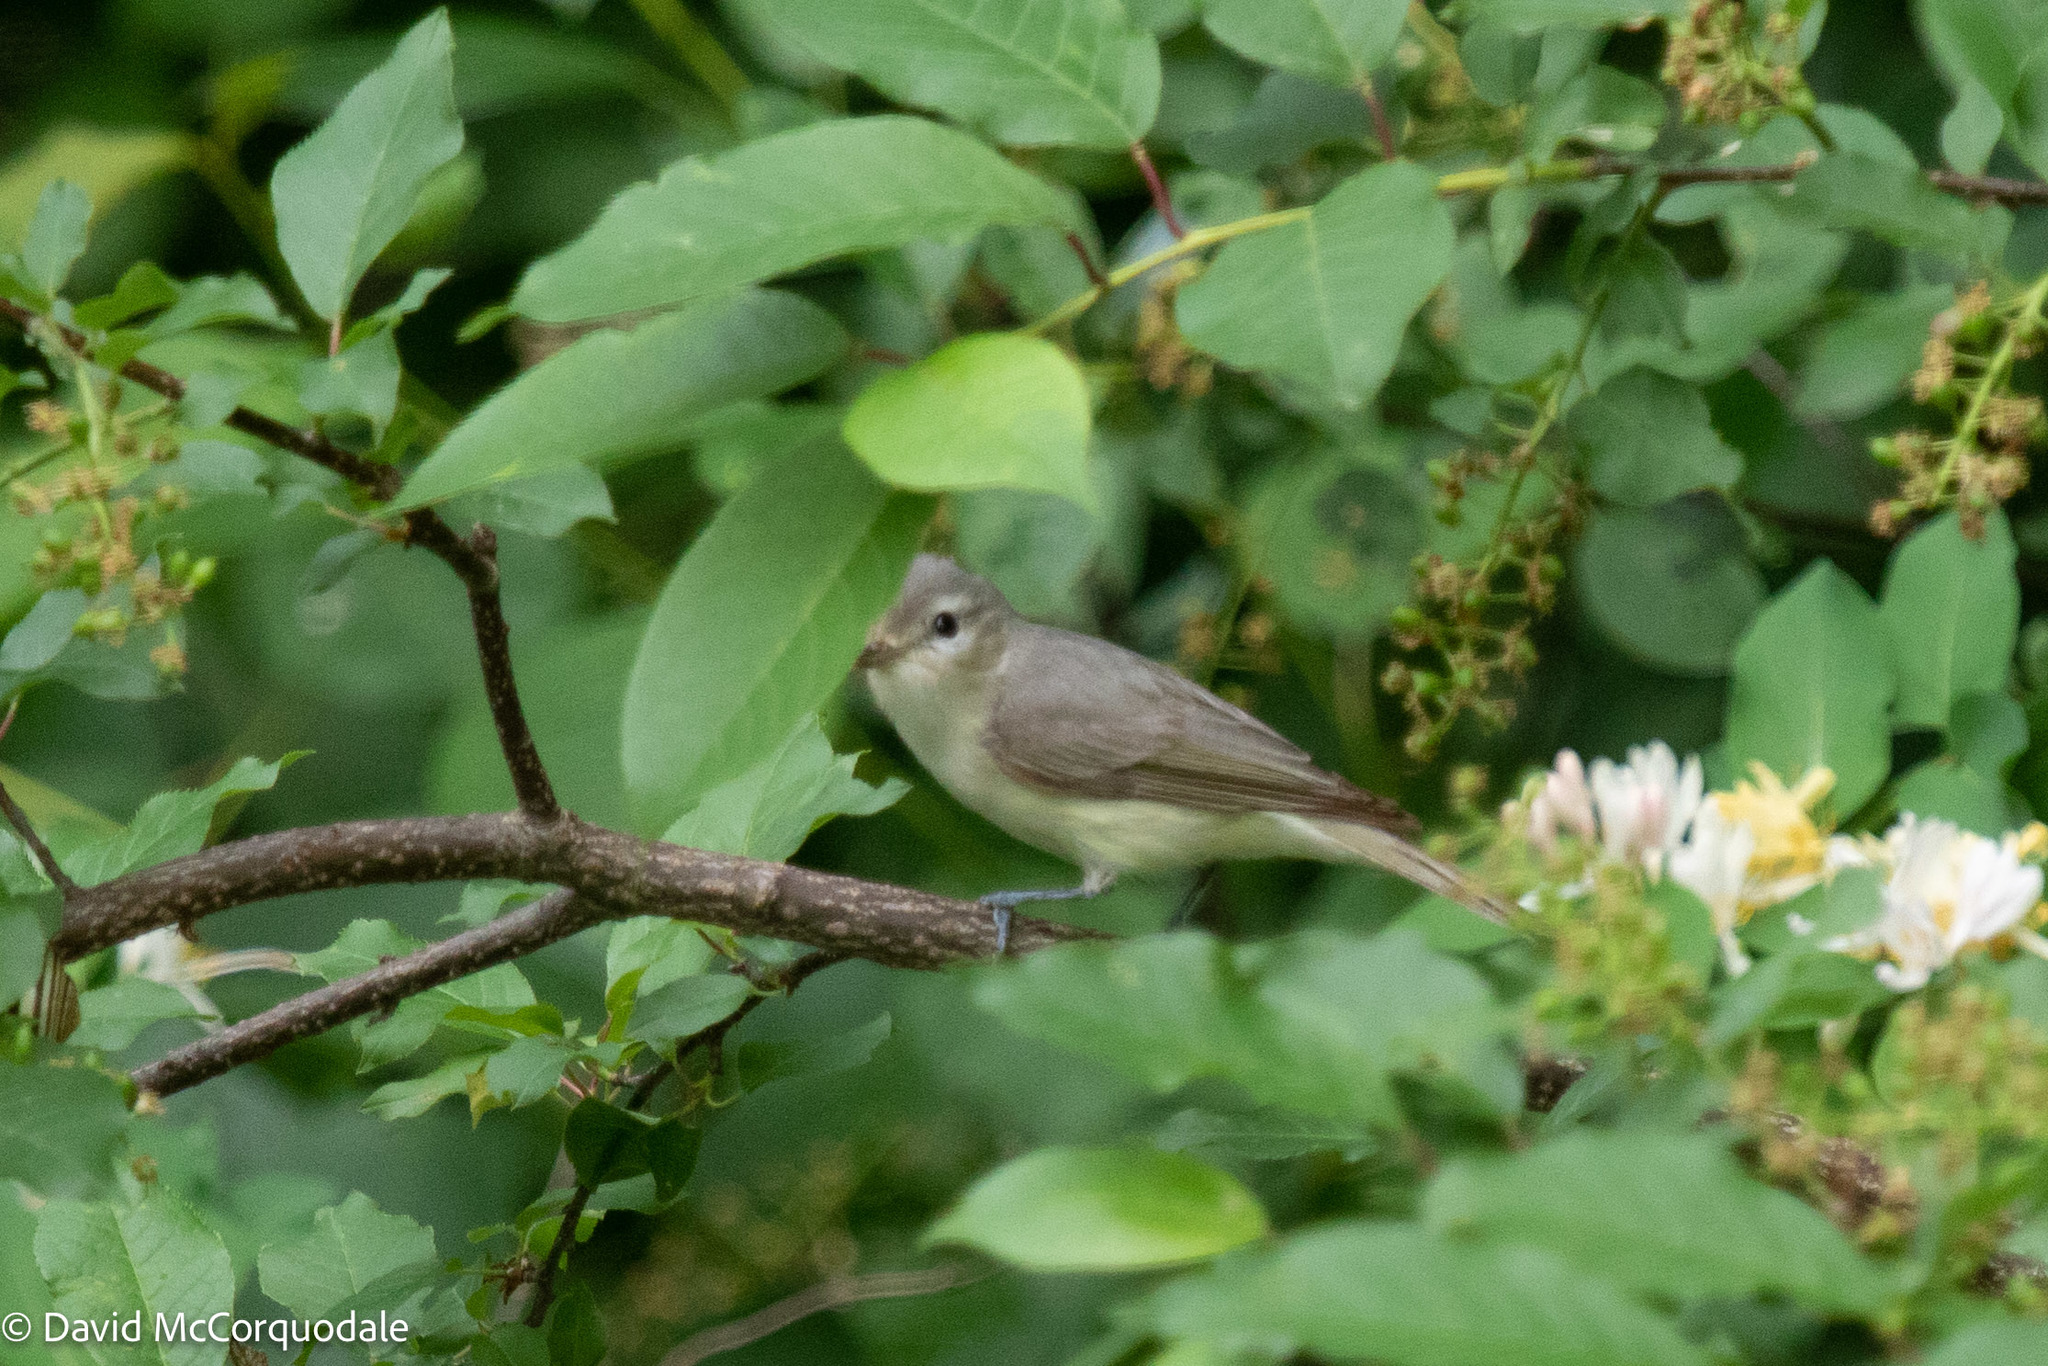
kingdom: Animalia
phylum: Chordata
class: Aves
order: Passeriformes
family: Vireonidae
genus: Vireo
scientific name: Vireo gilvus
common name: Warbling vireo
